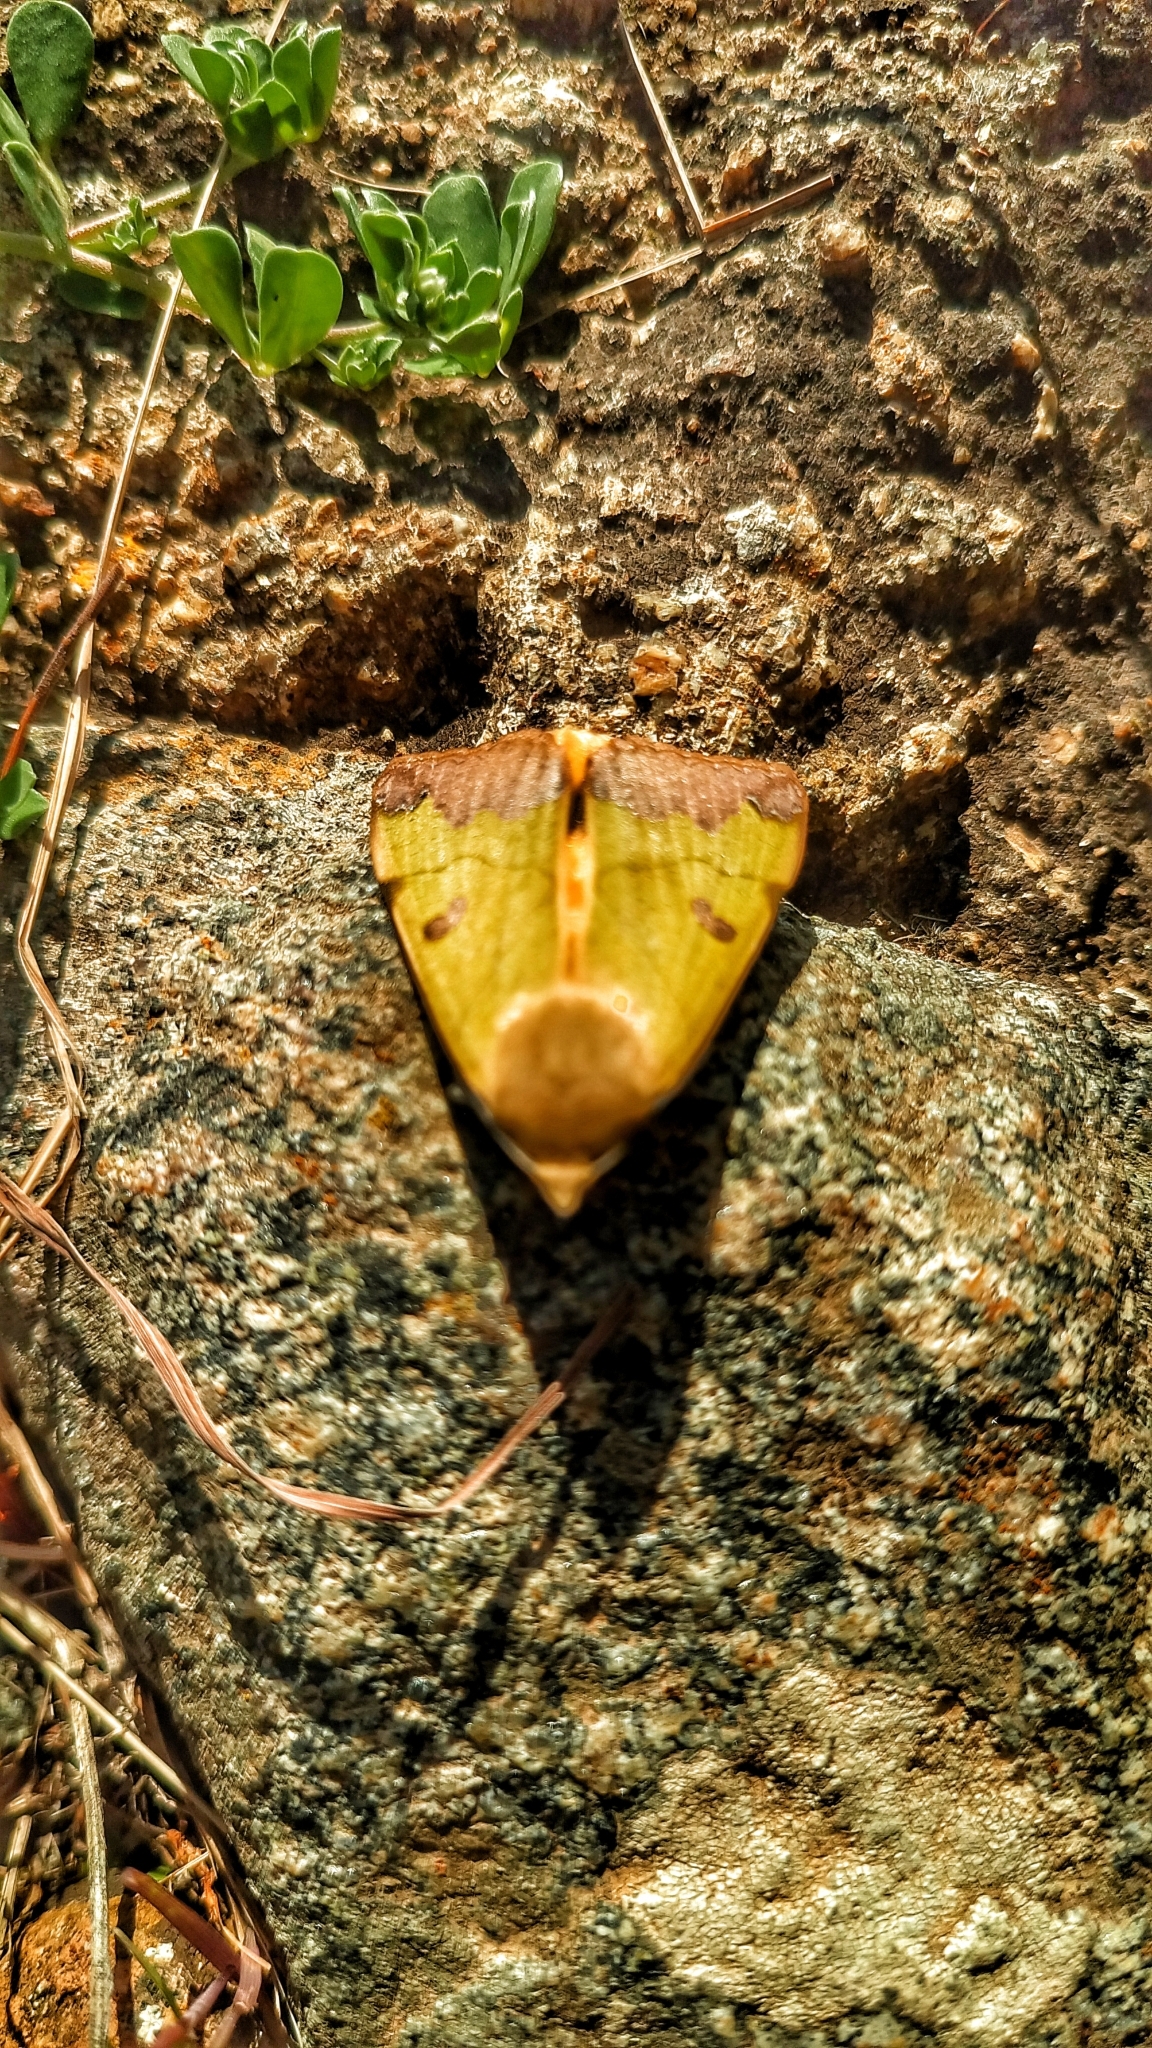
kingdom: Animalia
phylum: Arthropoda
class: Insecta
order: Lepidoptera
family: Erebidae
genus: Ophiusa
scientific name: Ophiusa tirhaca
